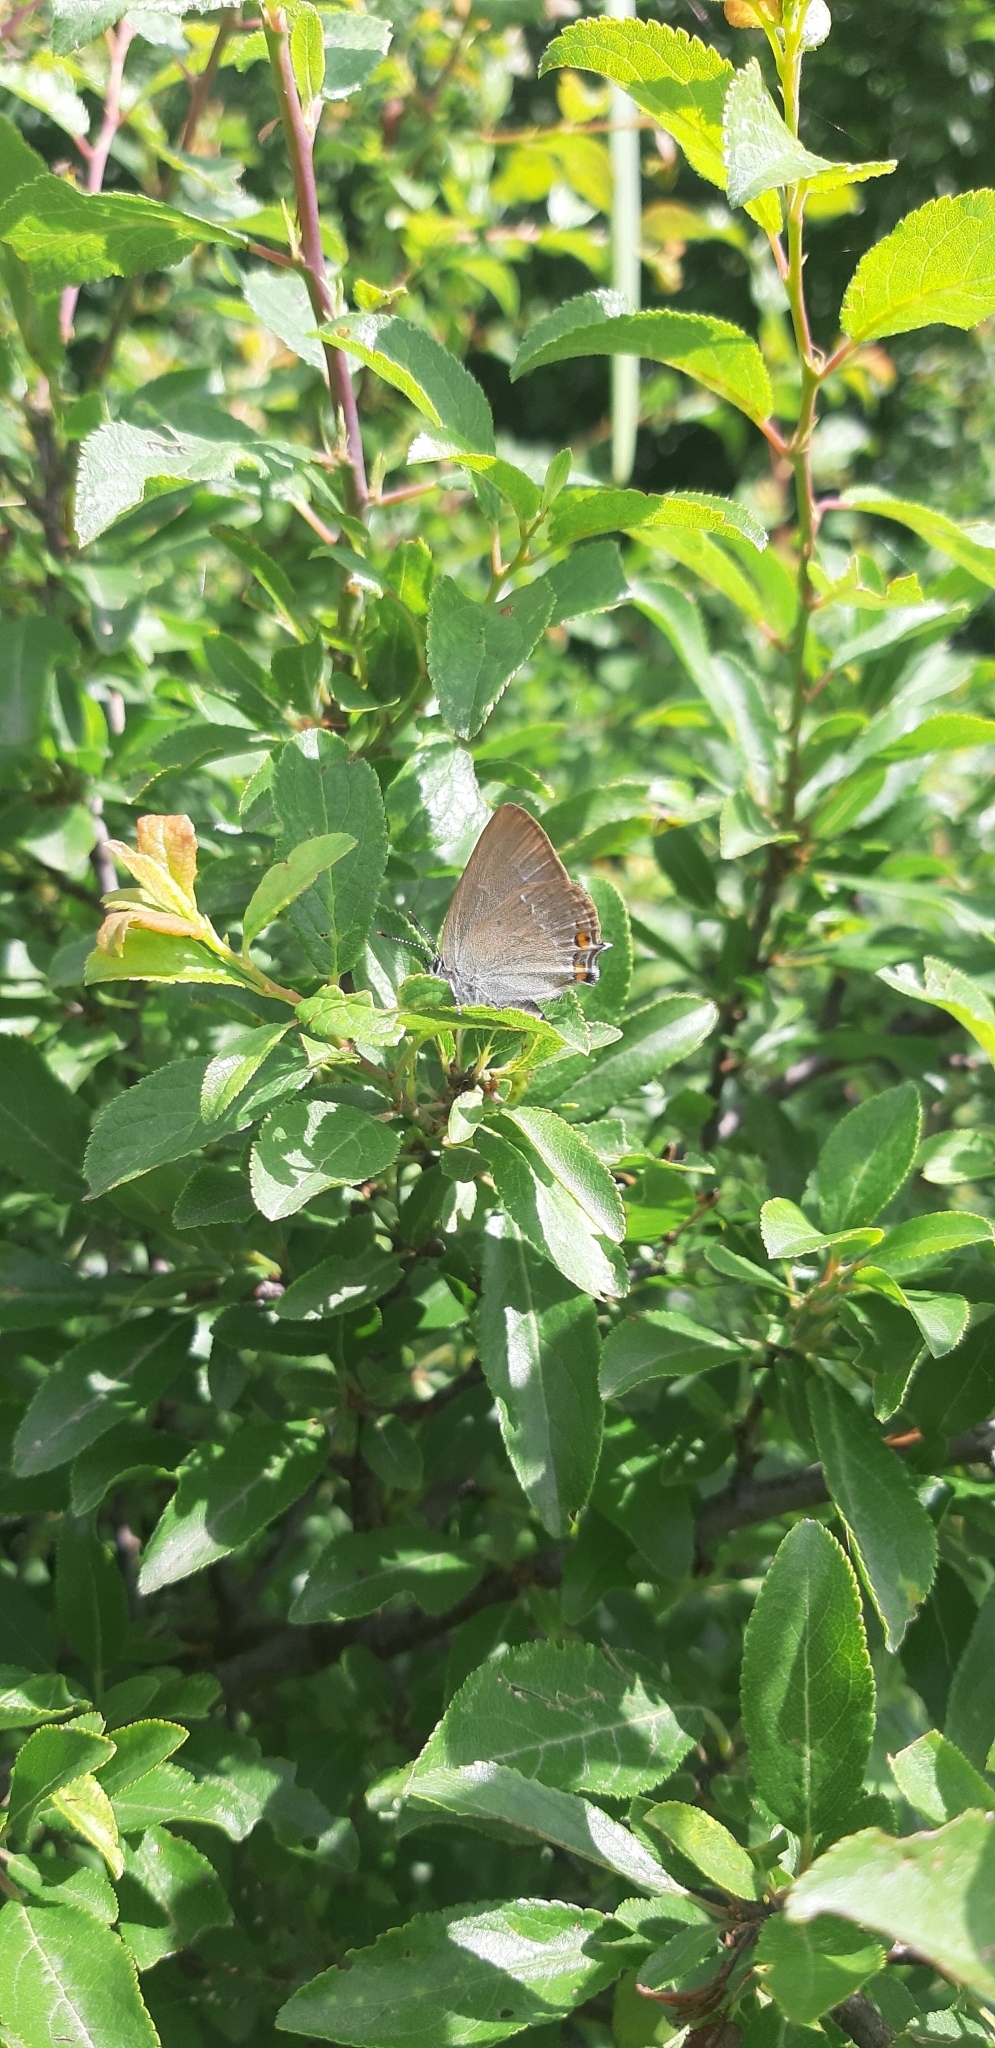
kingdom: Animalia
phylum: Arthropoda
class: Insecta
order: Lepidoptera
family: Lycaenidae
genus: Strymon
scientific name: Strymon acaciae
